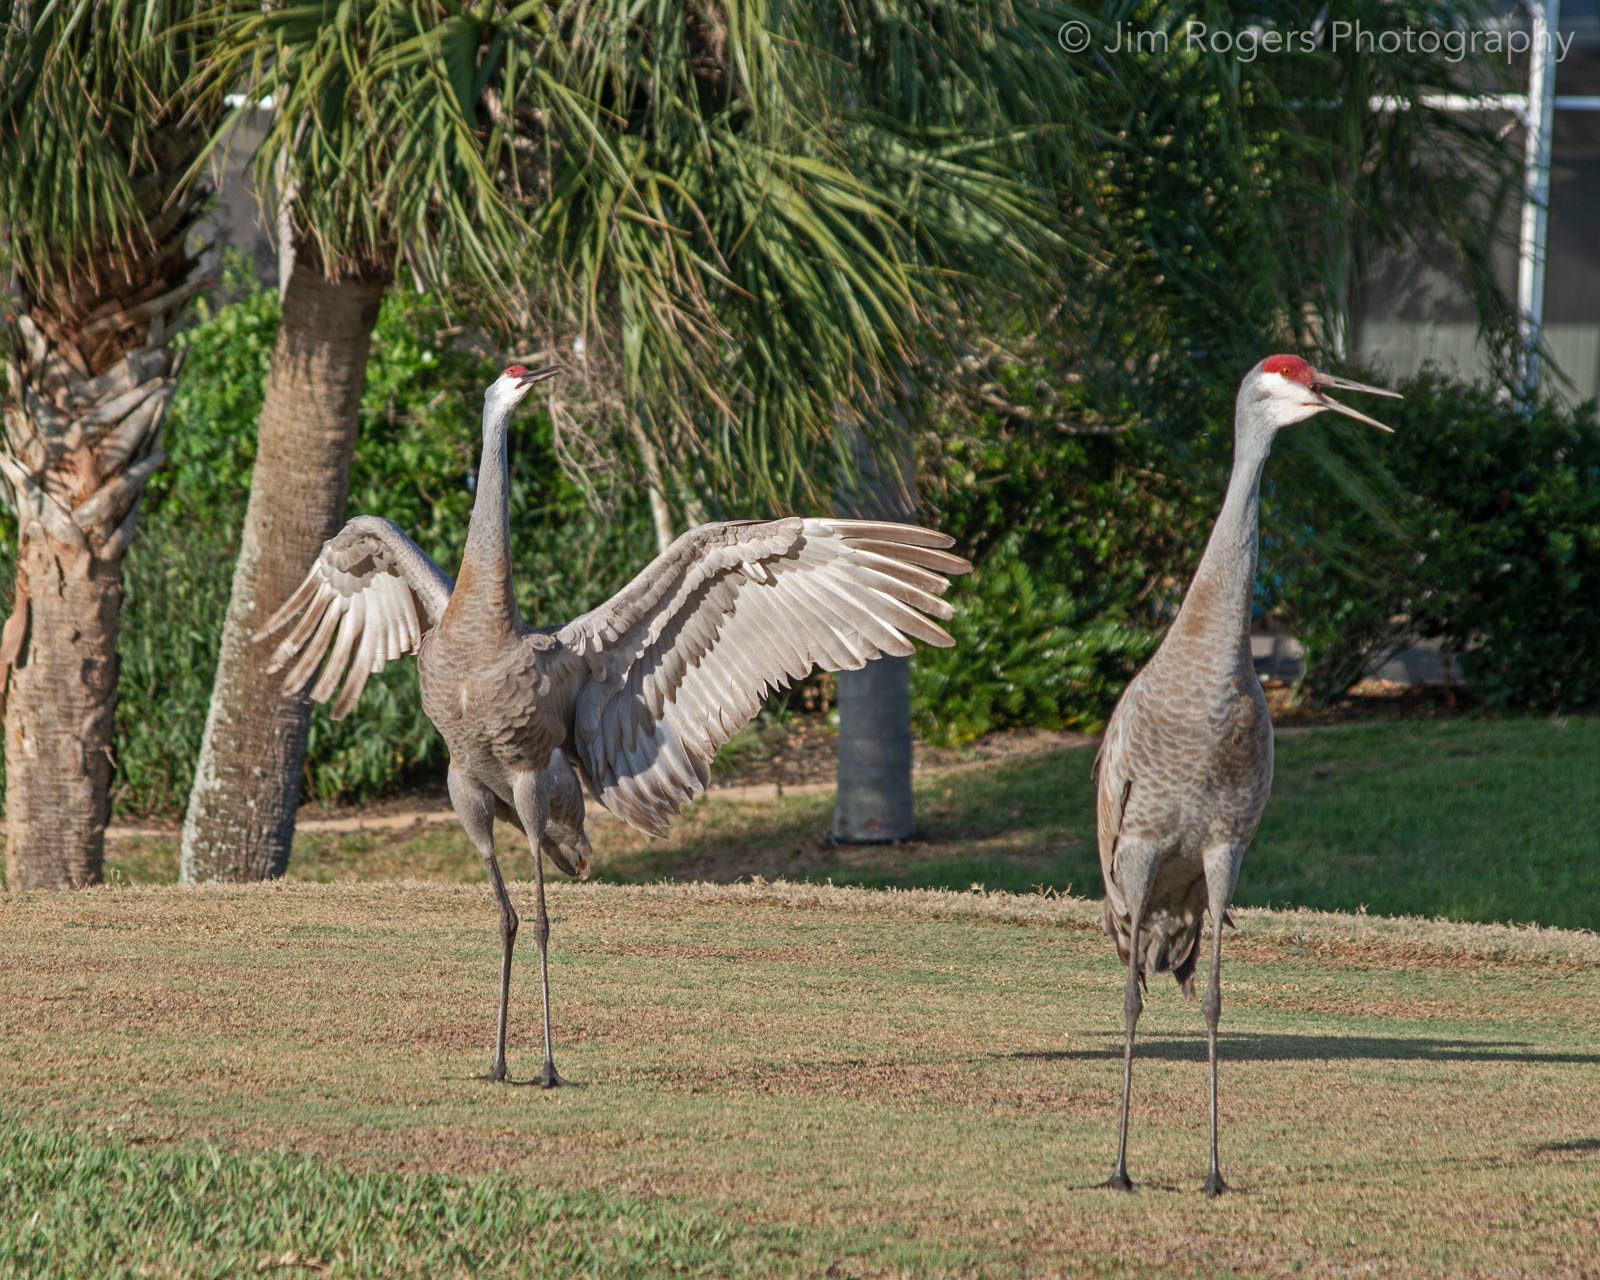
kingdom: Animalia
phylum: Chordata
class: Aves
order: Gruiformes
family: Gruidae
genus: Grus
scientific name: Grus canadensis
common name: Sandhill crane
